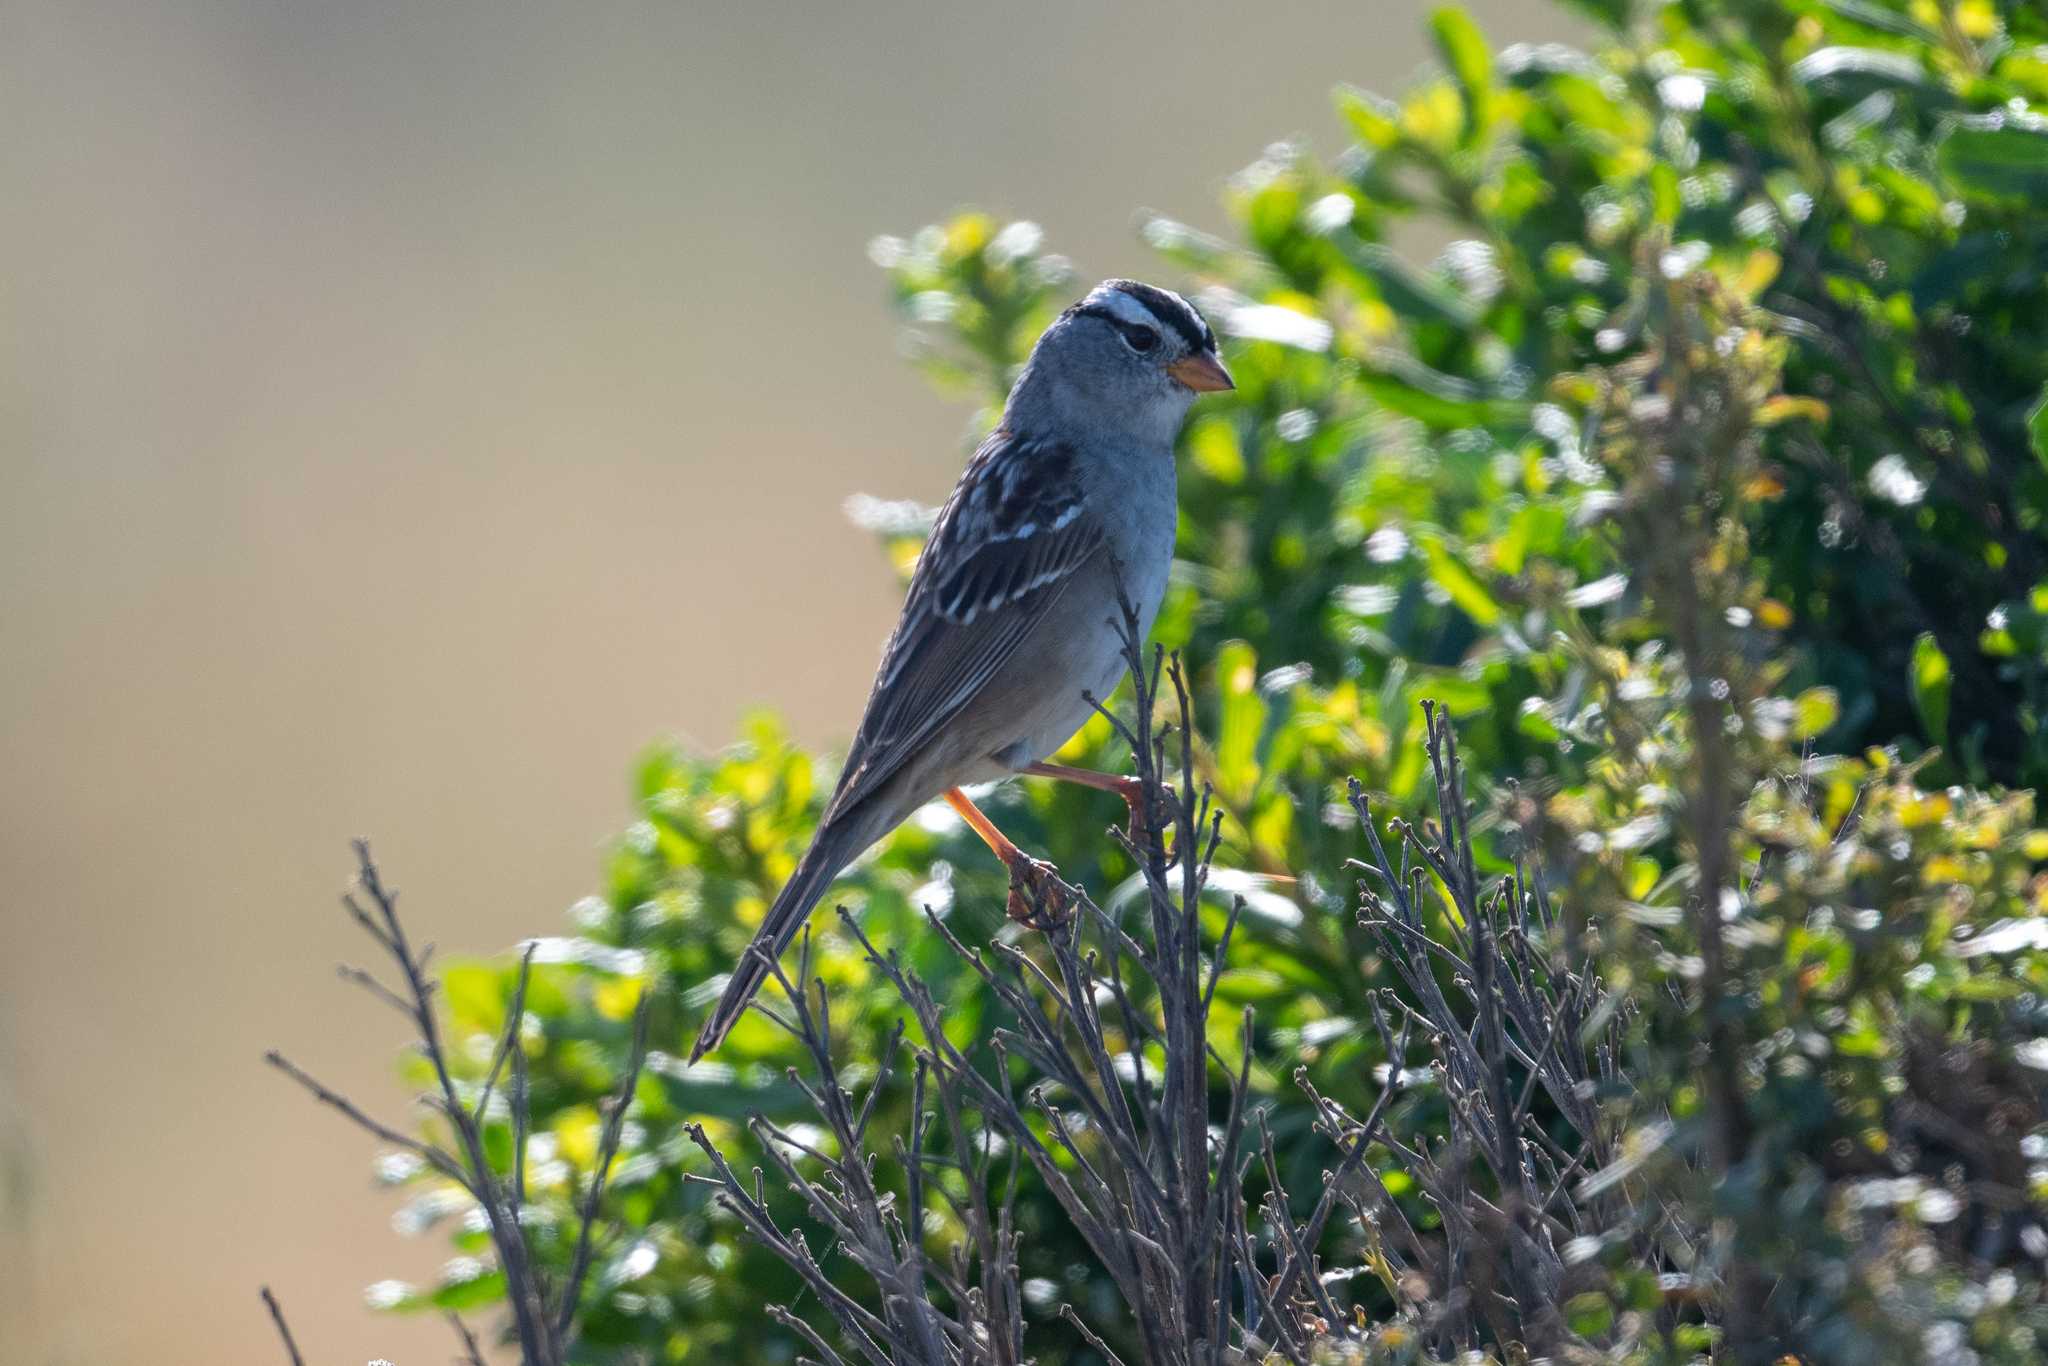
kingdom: Animalia
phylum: Chordata
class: Aves
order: Passeriformes
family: Passerellidae
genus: Zonotrichia
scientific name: Zonotrichia leucophrys
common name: White-crowned sparrow
